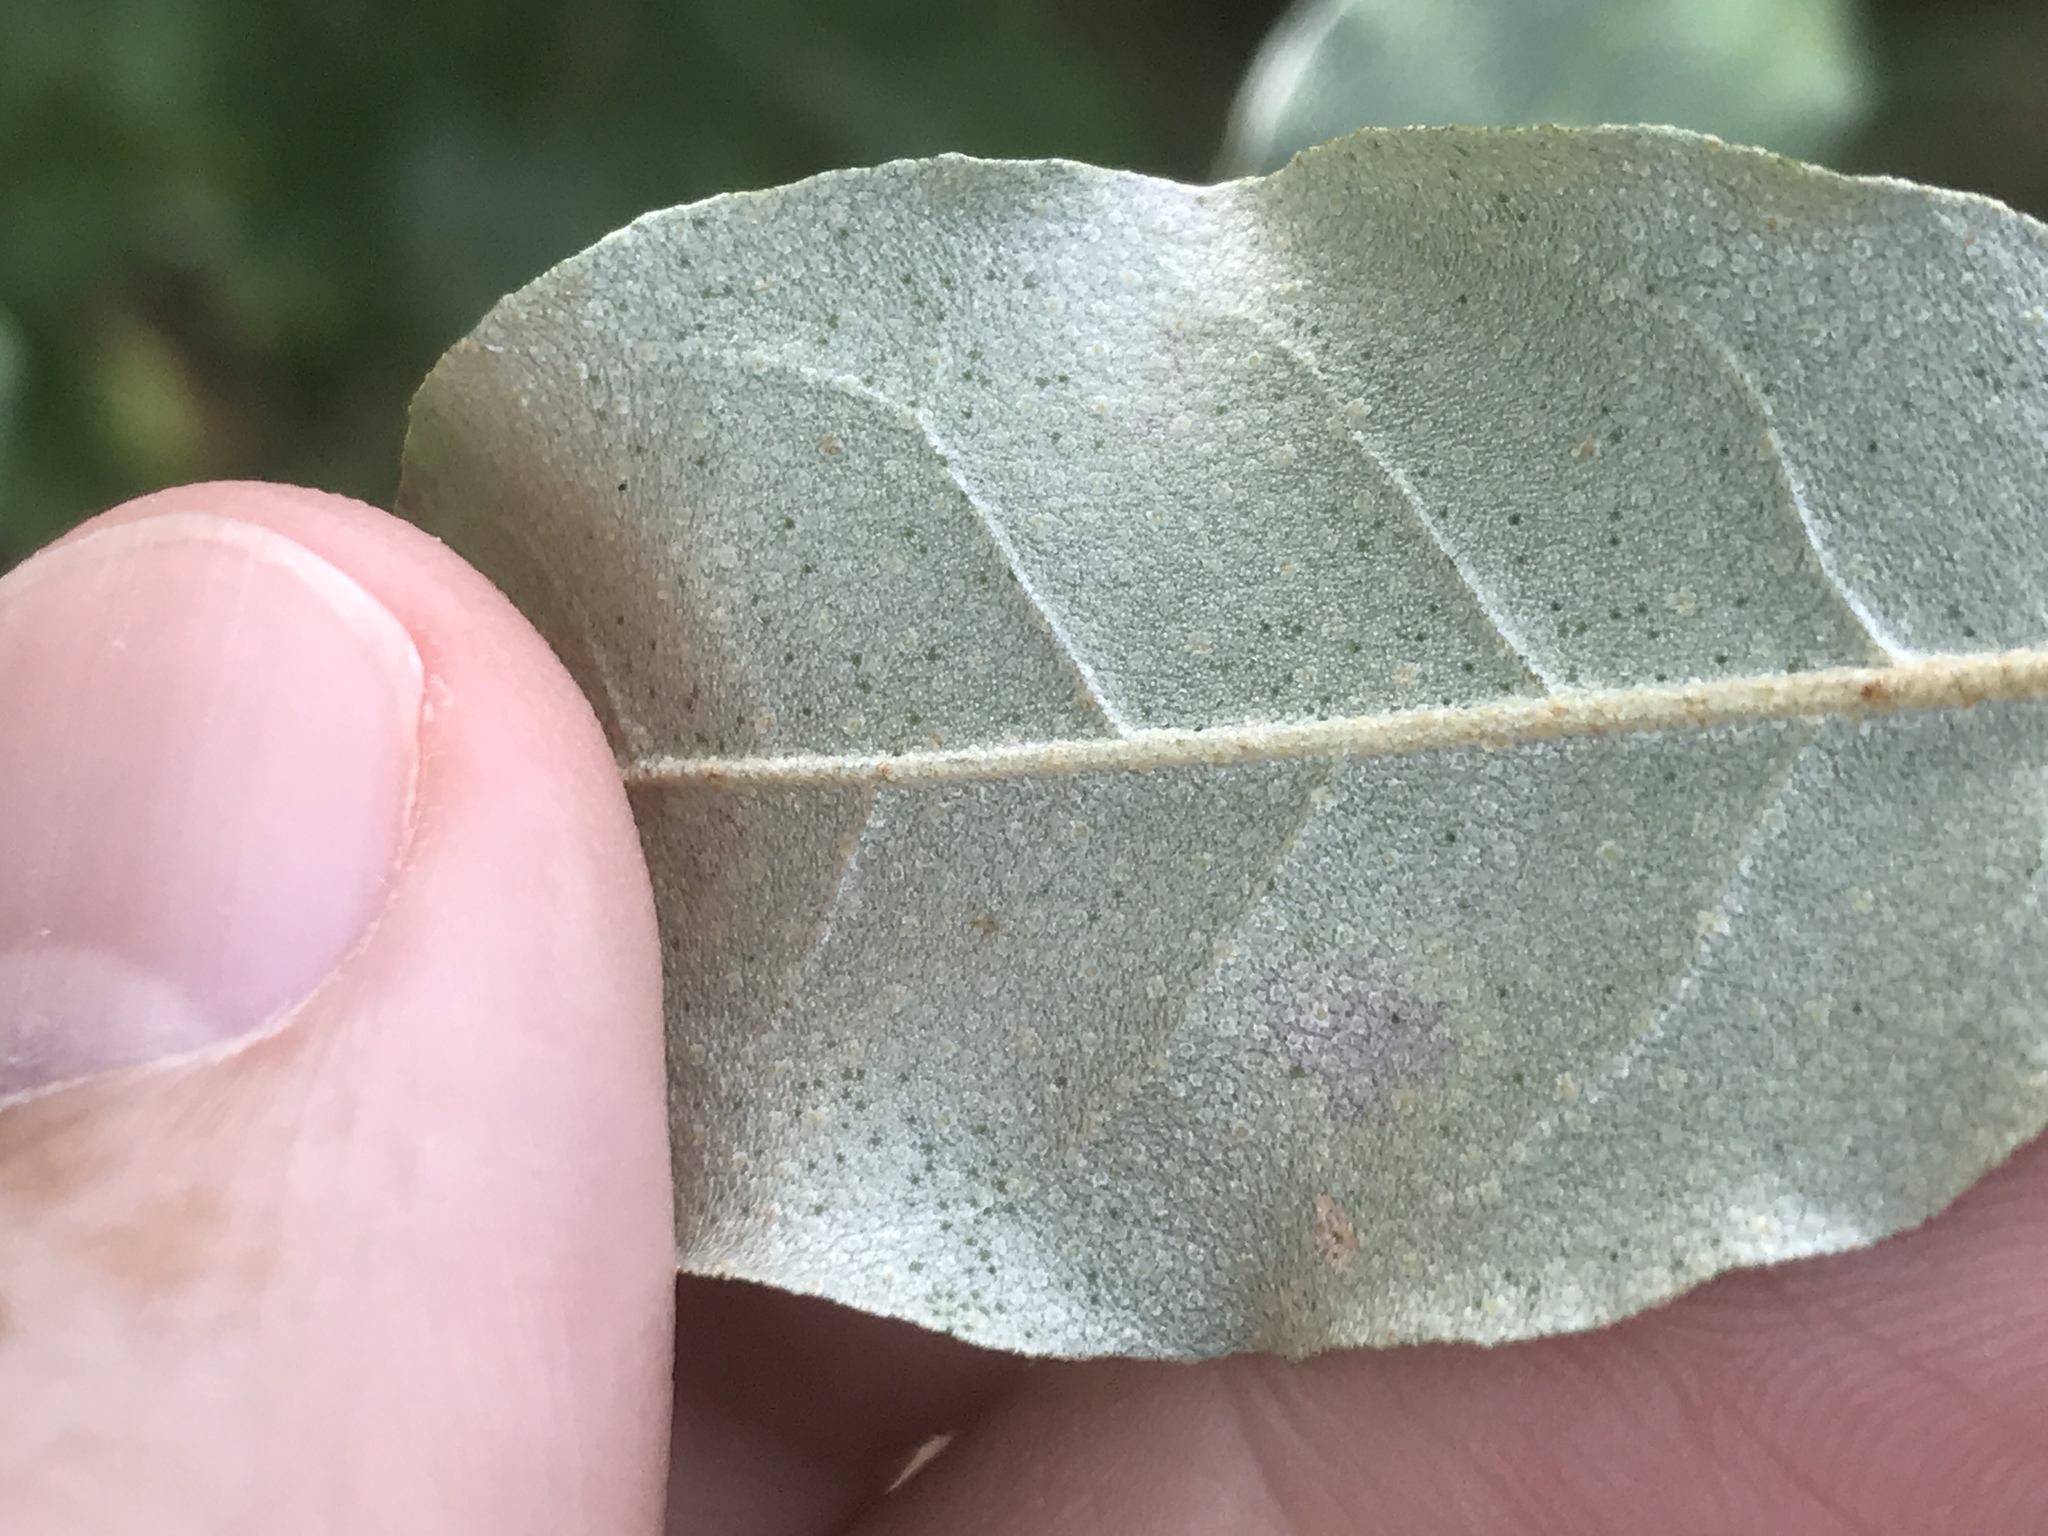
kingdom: Plantae
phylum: Tracheophyta
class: Magnoliopsida
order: Rosales
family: Elaeagnaceae
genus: Elaeagnus
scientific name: Elaeagnus umbellata
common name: Autumn olive
